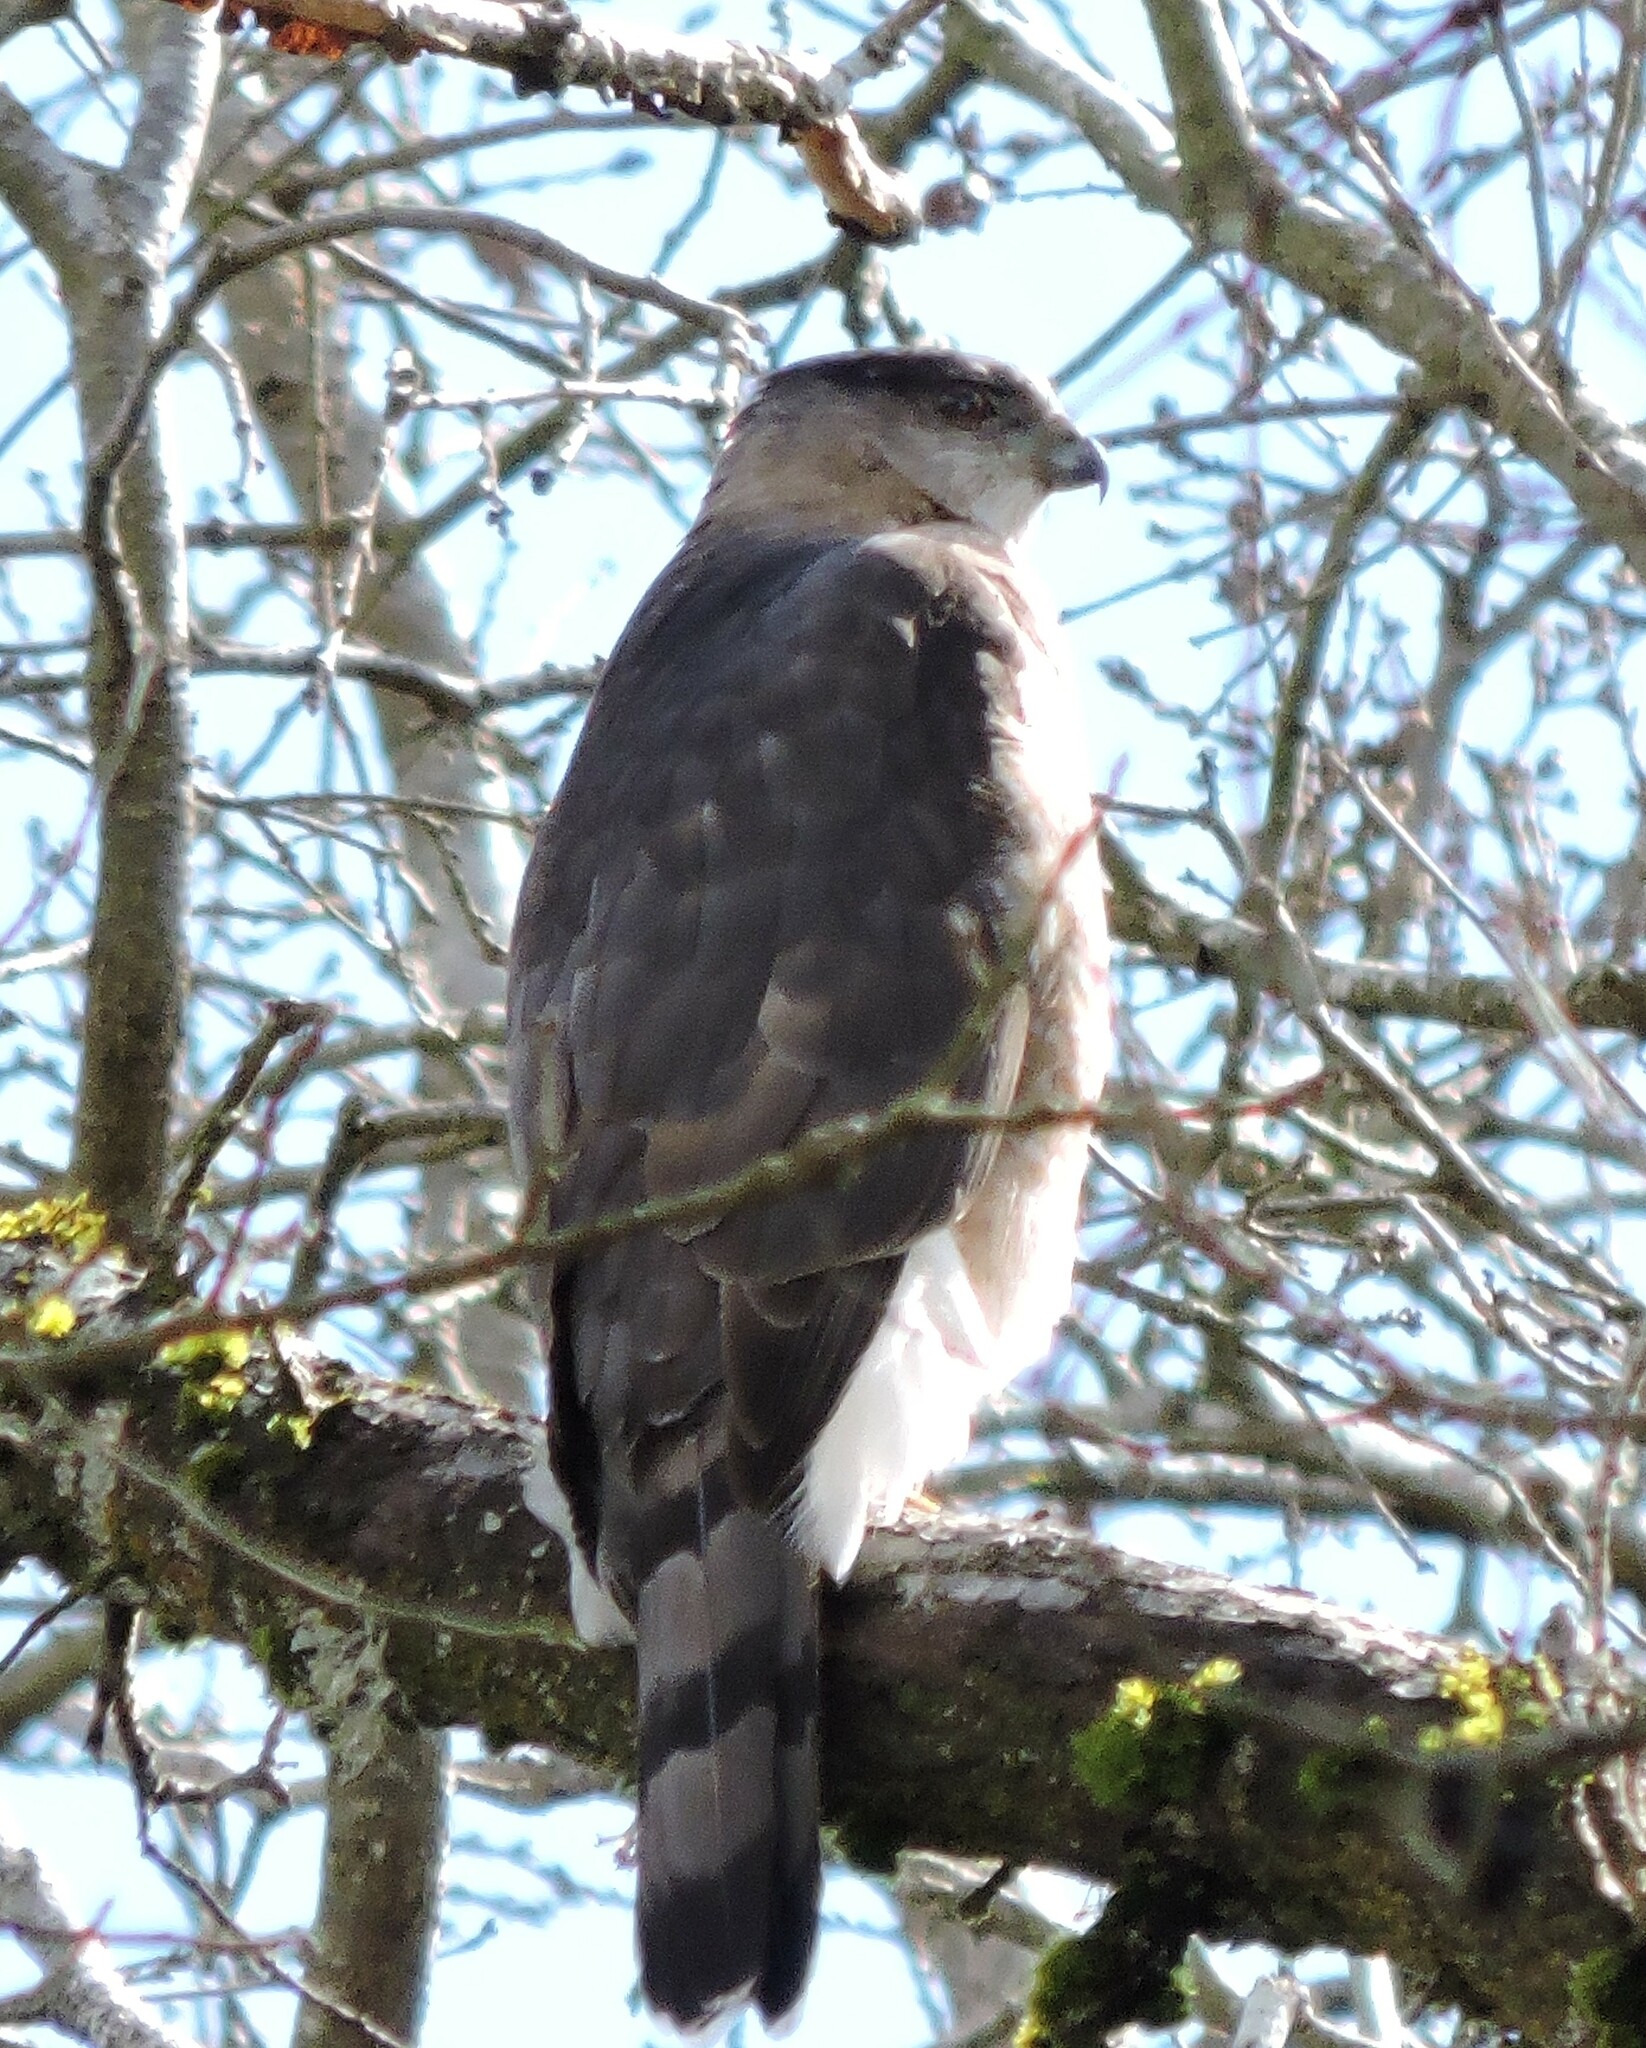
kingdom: Animalia
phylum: Chordata
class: Aves
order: Accipitriformes
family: Accipitridae
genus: Accipiter
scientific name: Accipiter cooperii
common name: Cooper's hawk
